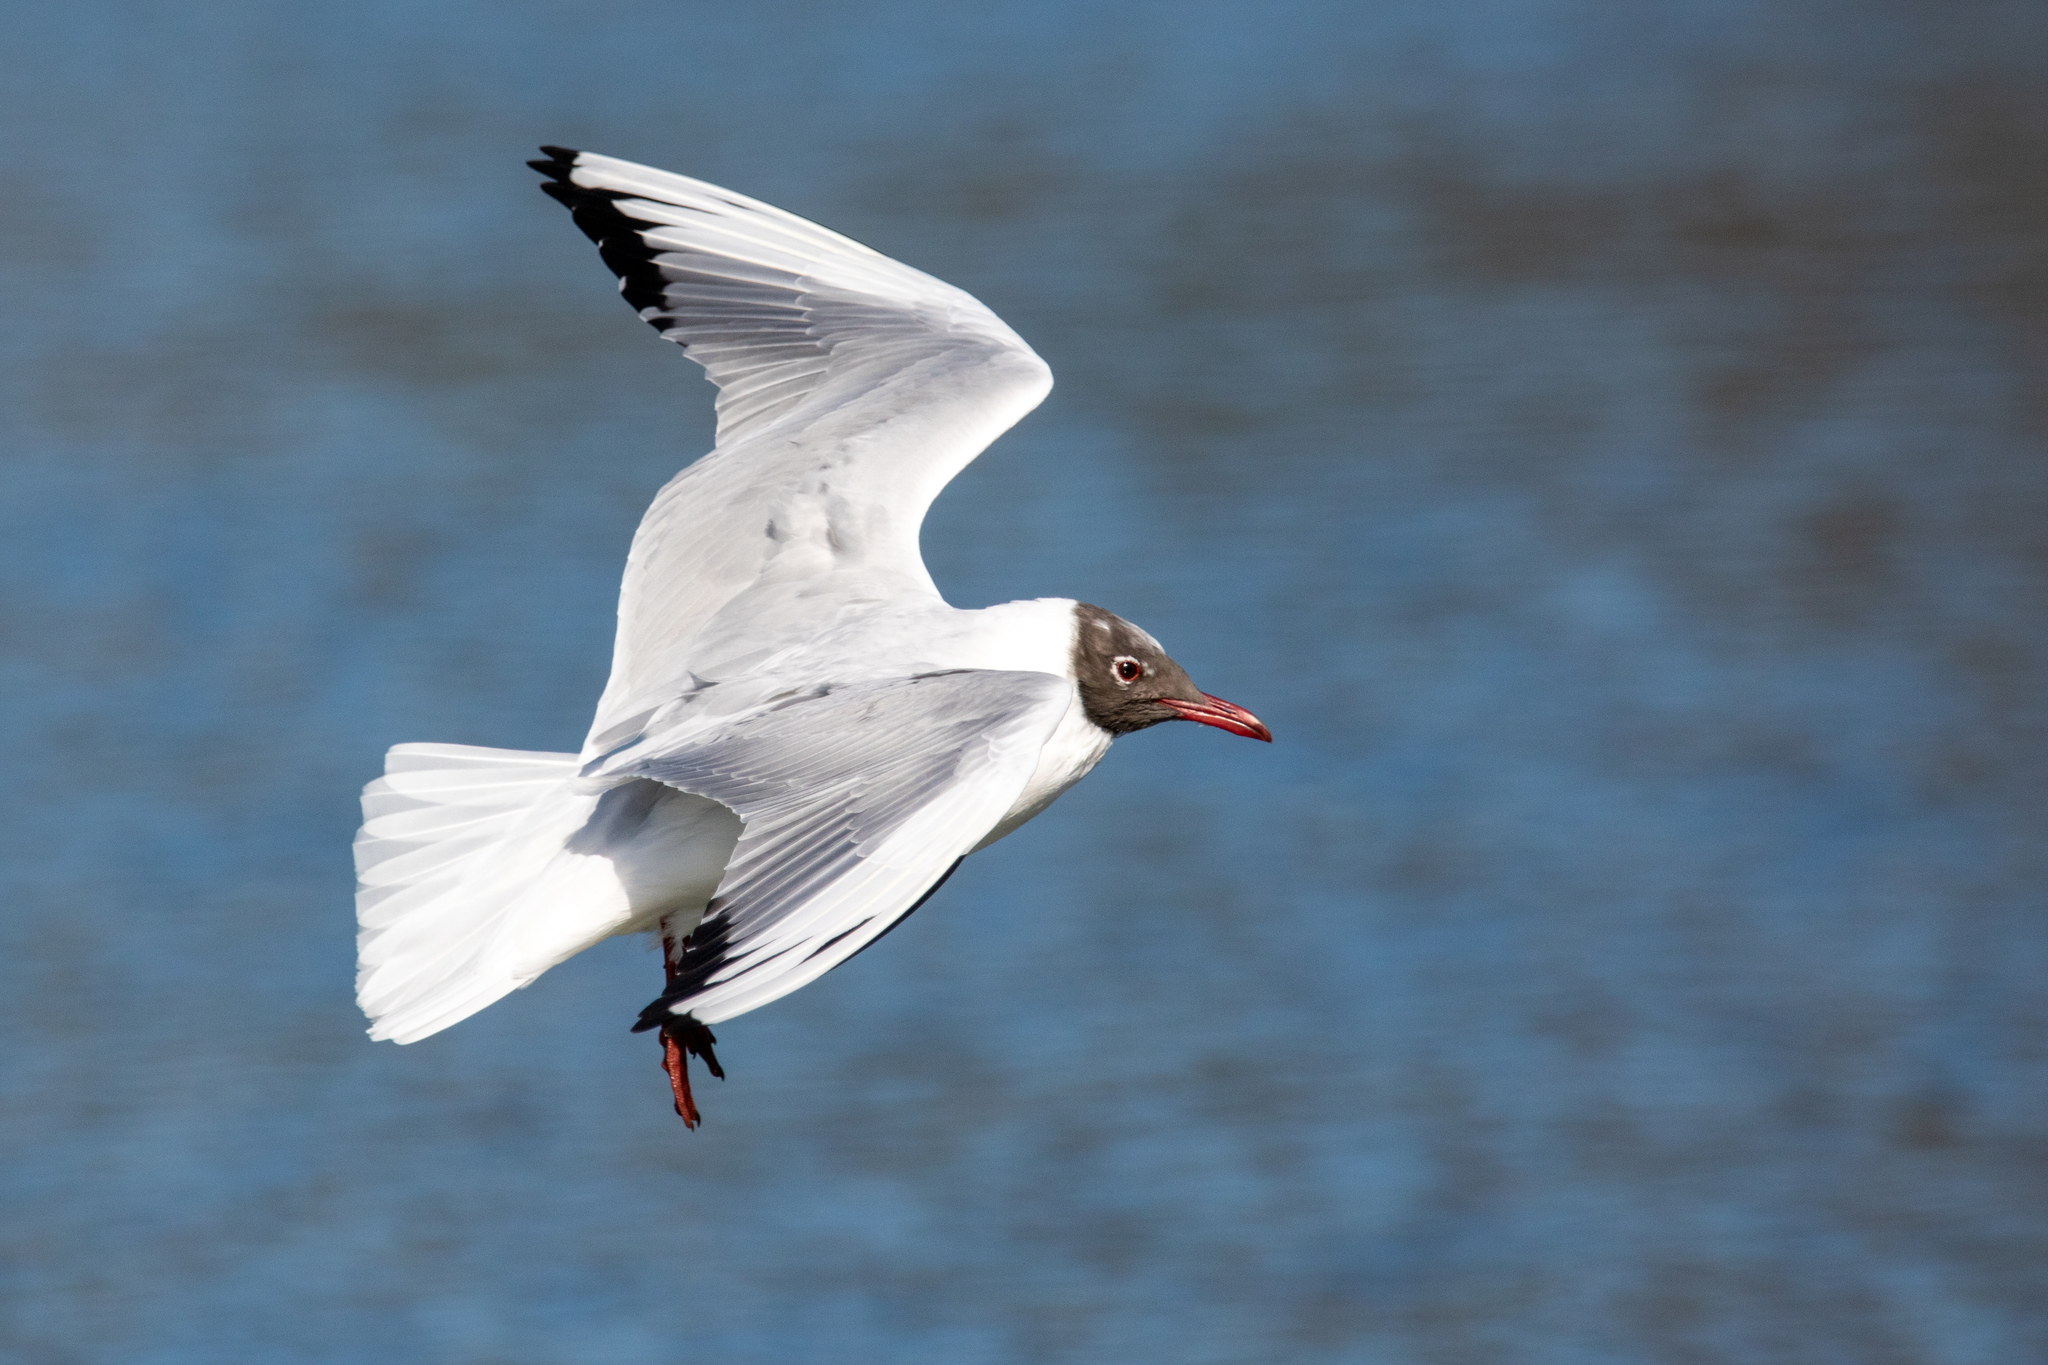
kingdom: Animalia
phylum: Chordata
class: Aves
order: Charadriiformes
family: Laridae
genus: Chroicocephalus
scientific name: Chroicocephalus ridibundus
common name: Black-headed gull
